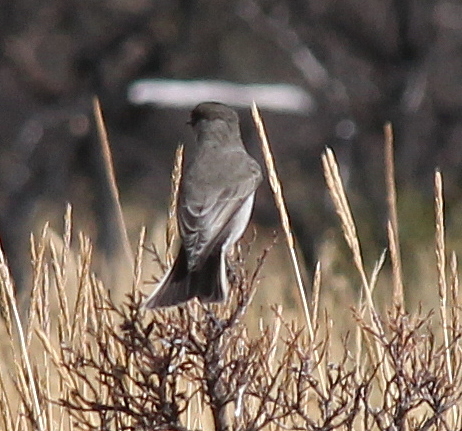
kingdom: Animalia
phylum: Chordata
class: Aves
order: Passeriformes
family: Tyrannidae
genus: Muscisaxicola
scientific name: Muscisaxicola maclovianus
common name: Dark-faced ground tyrant
